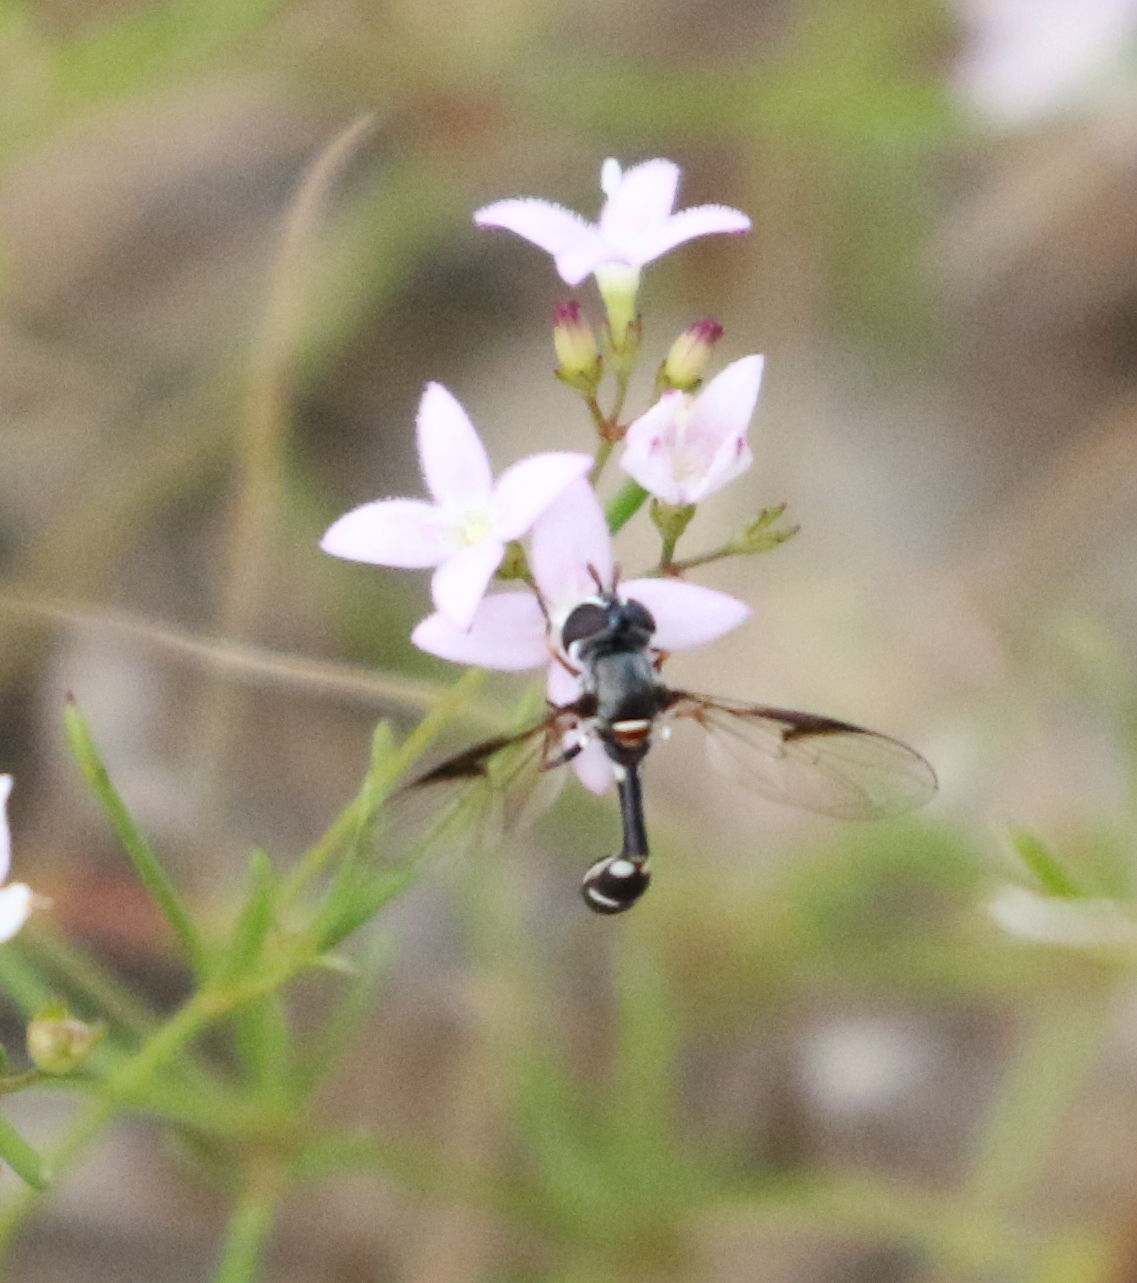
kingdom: Animalia
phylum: Arthropoda
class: Insecta
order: Diptera
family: Syrphidae
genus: Dioprosopa
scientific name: Dioprosopa clavatus
